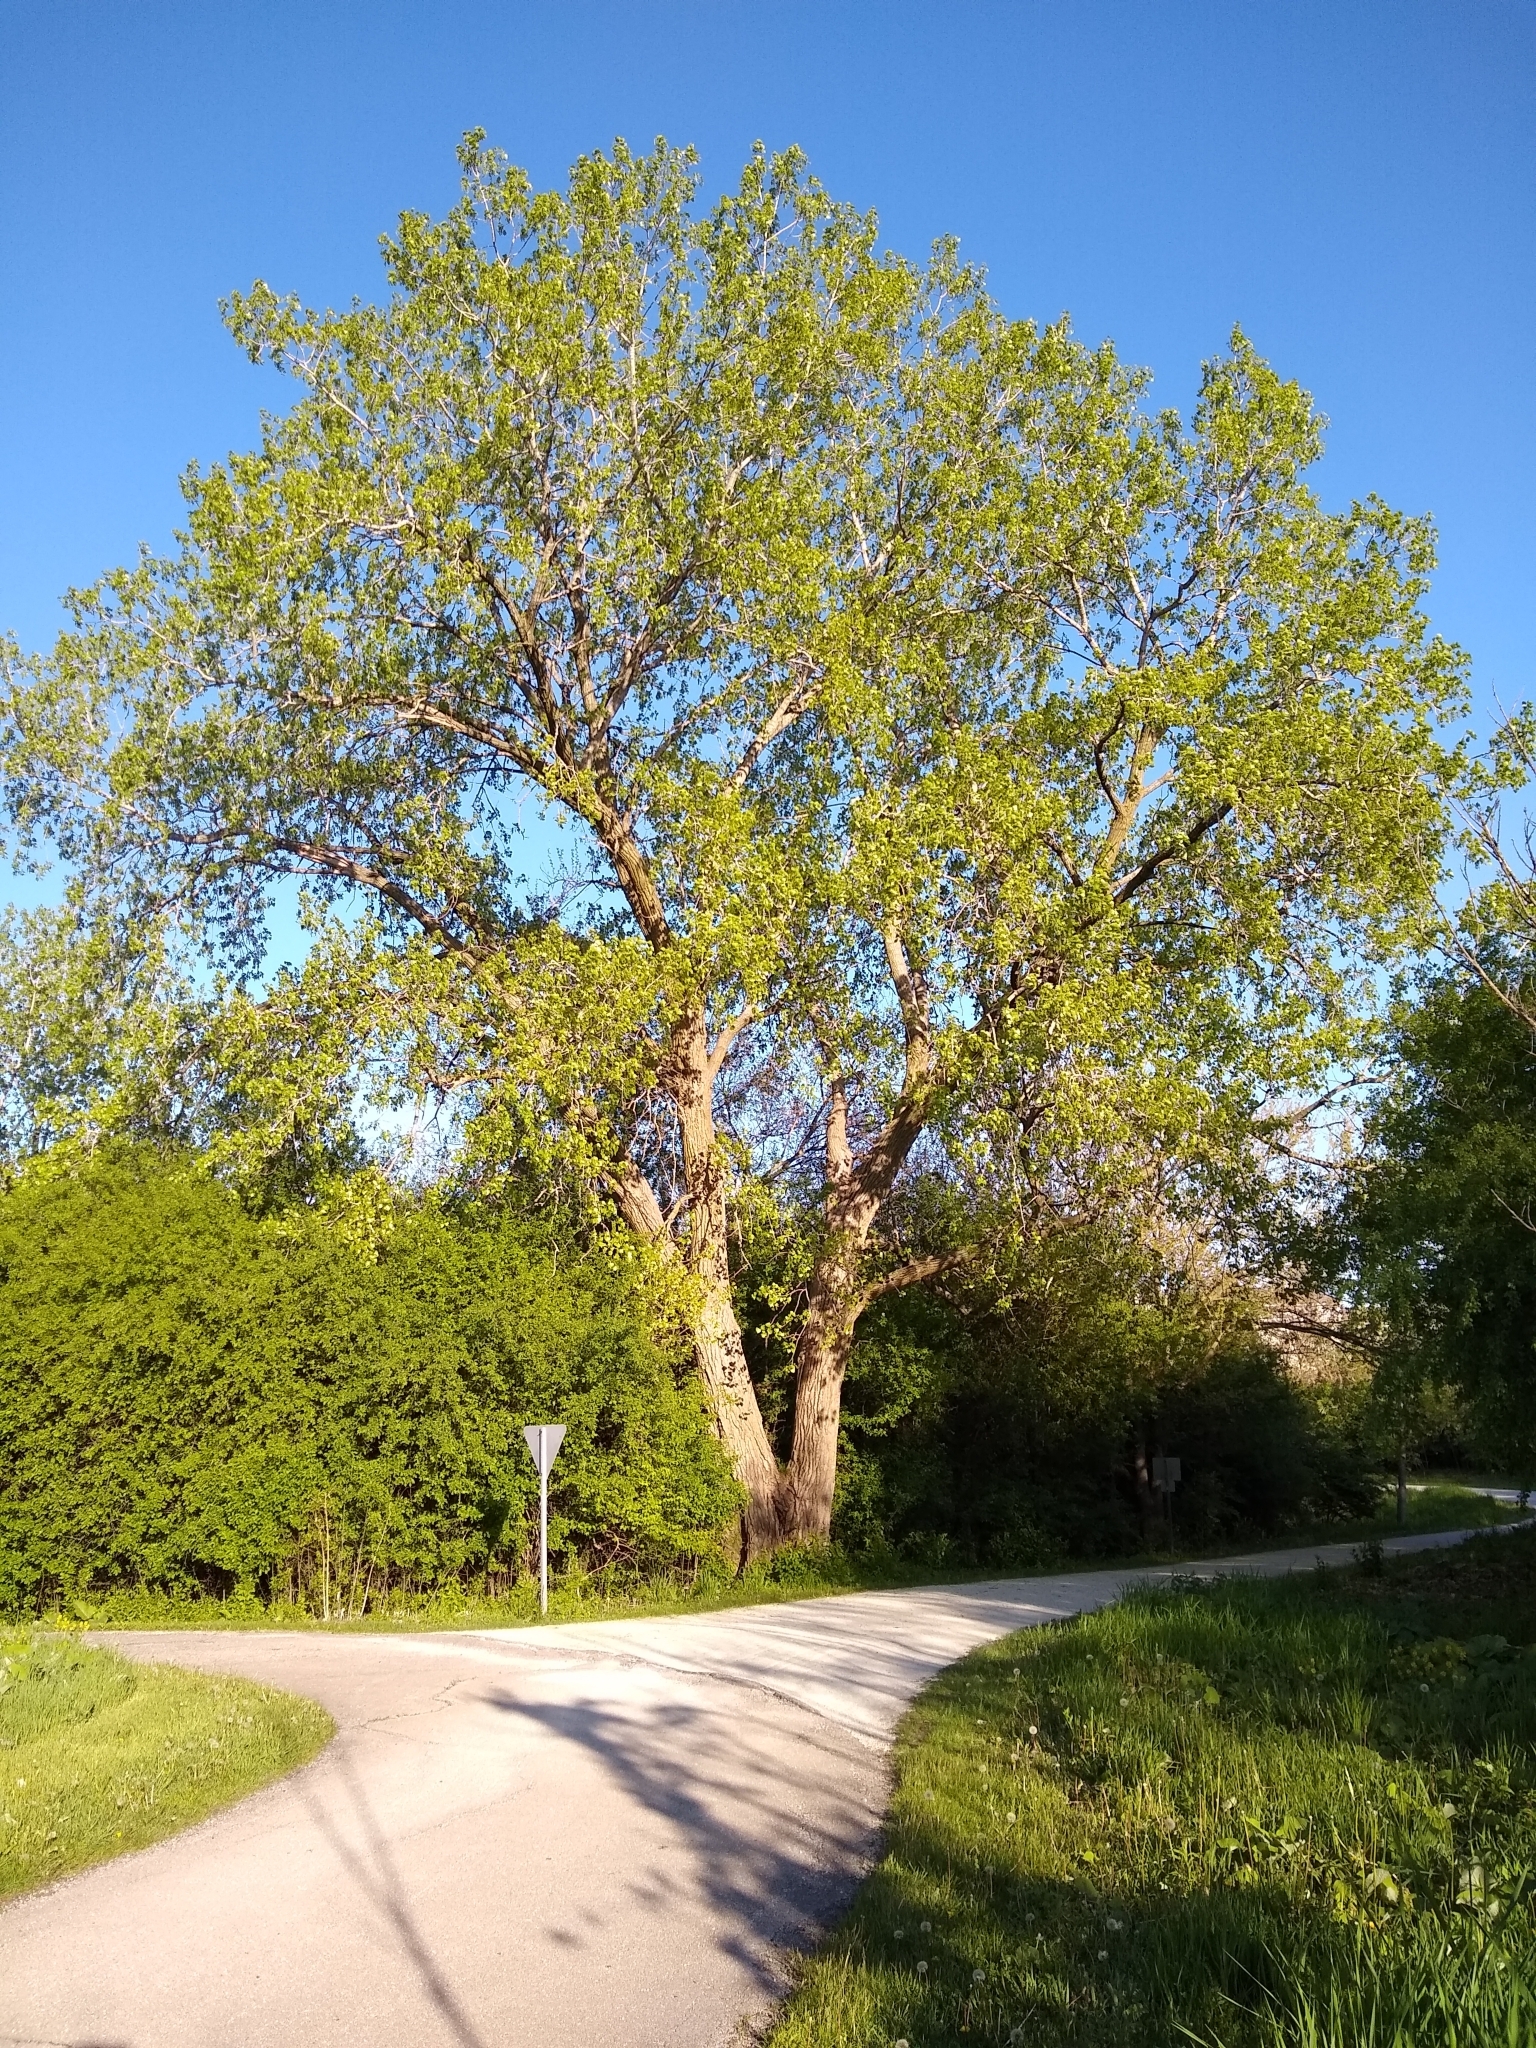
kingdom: Plantae
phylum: Tracheophyta
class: Magnoliopsida
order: Malpighiales
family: Salicaceae
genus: Populus
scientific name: Populus deltoides
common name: Eastern cottonwood
